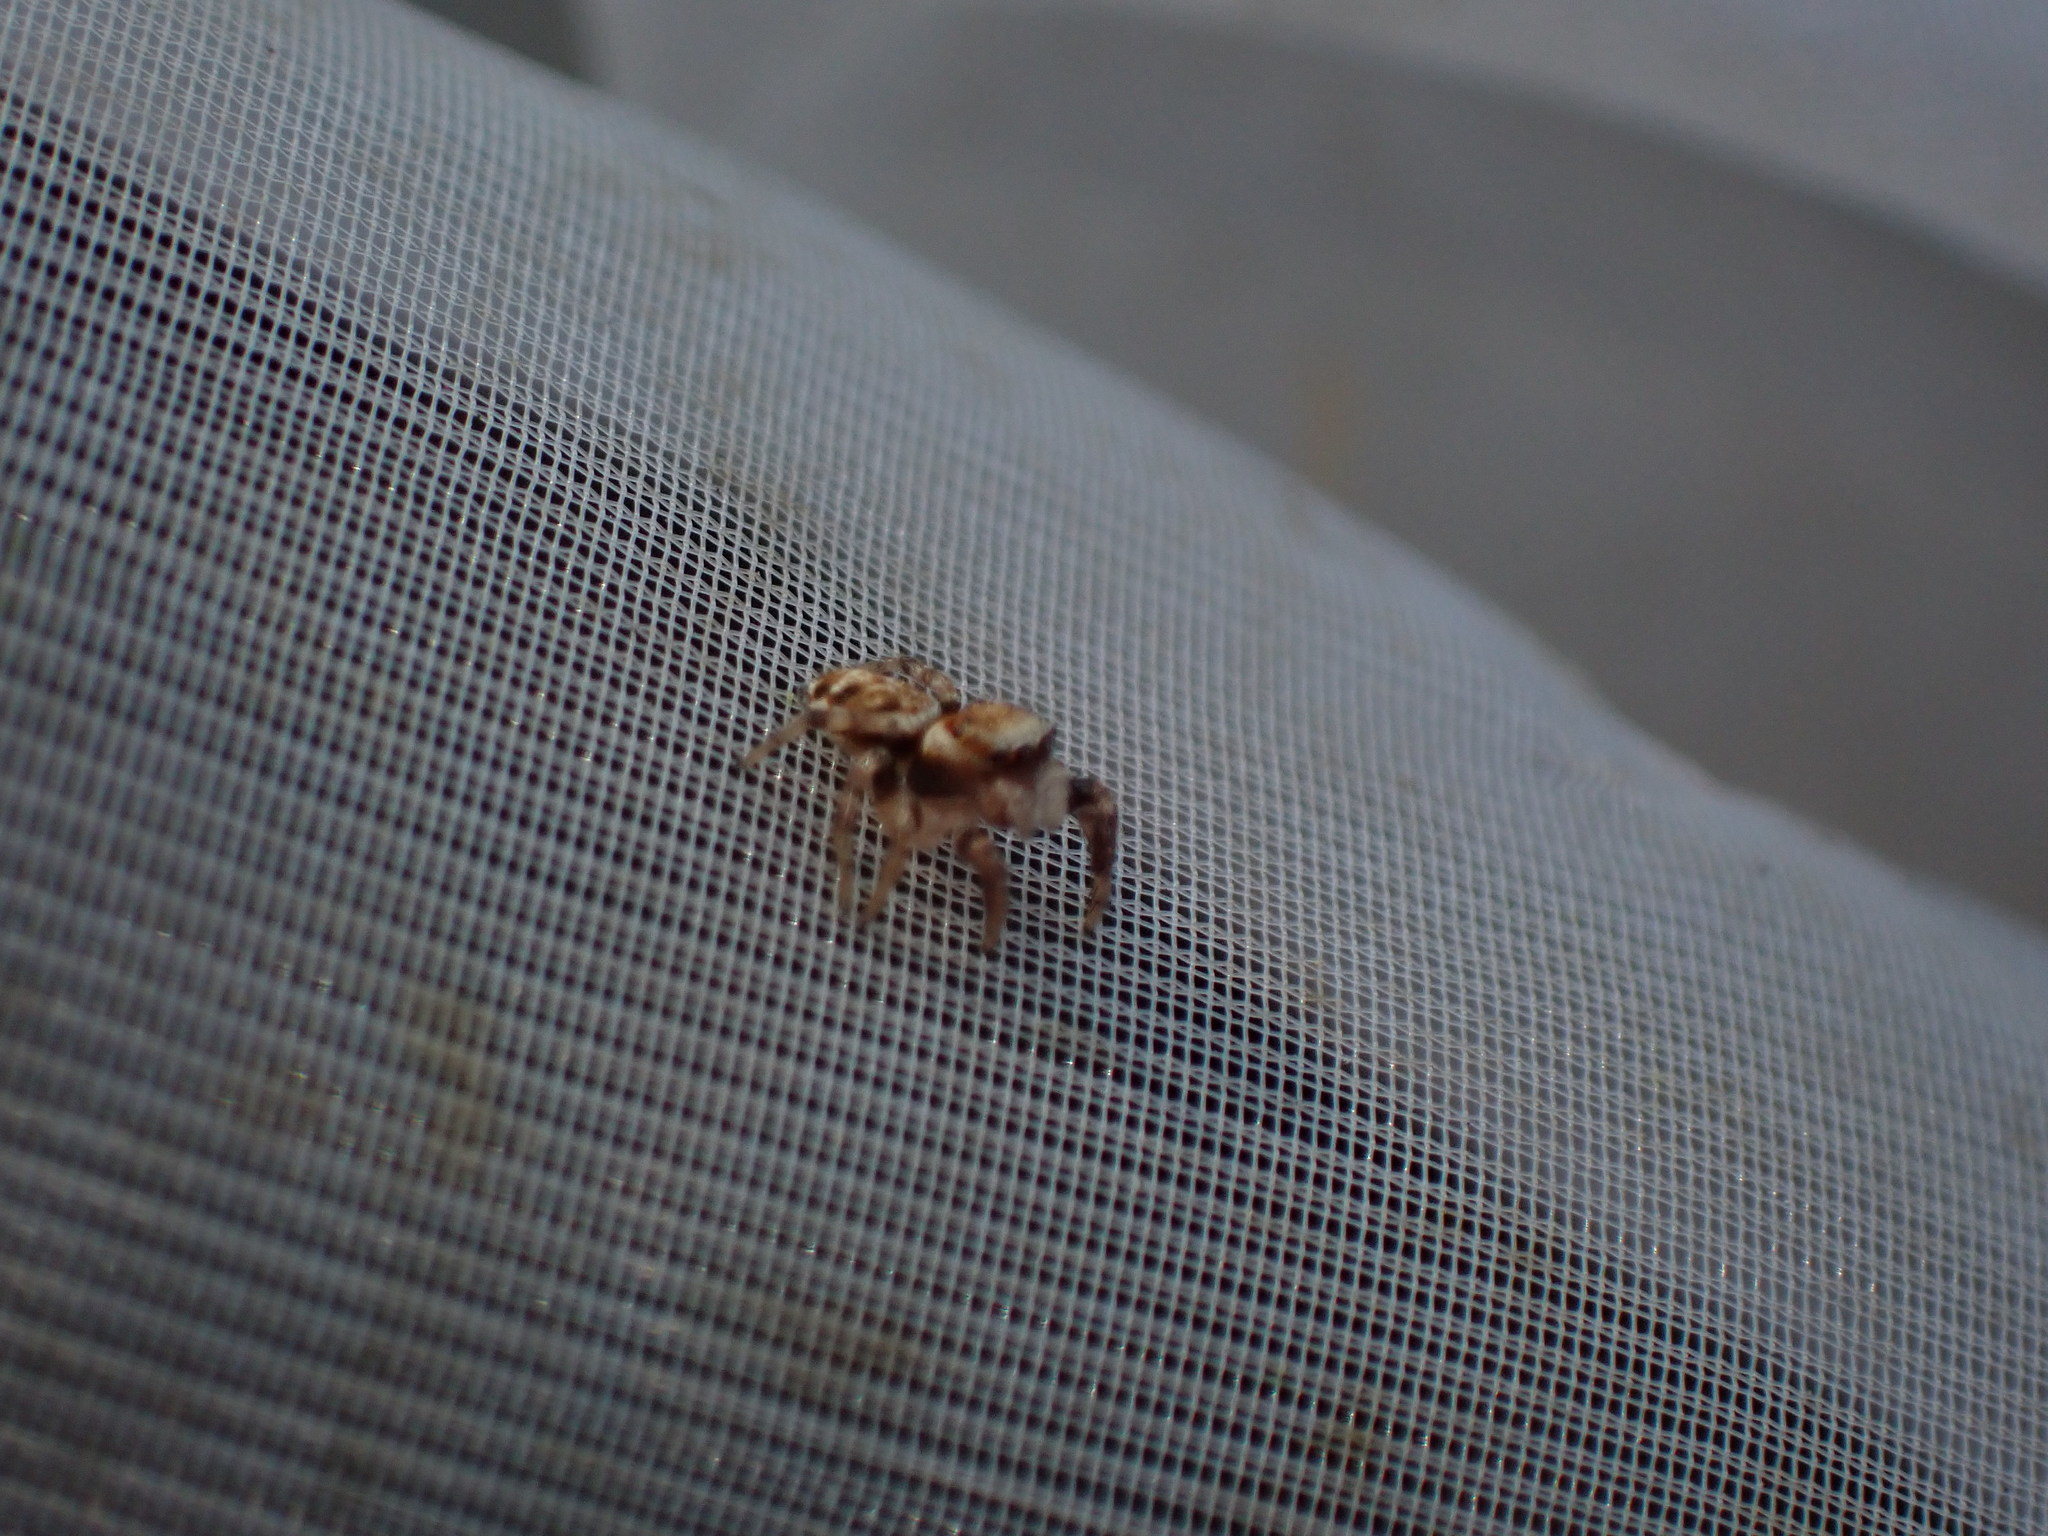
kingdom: Animalia
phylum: Arthropoda
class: Arachnida
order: Araneae
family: Salticidae
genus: Evarcha
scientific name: Evarcha falcata
